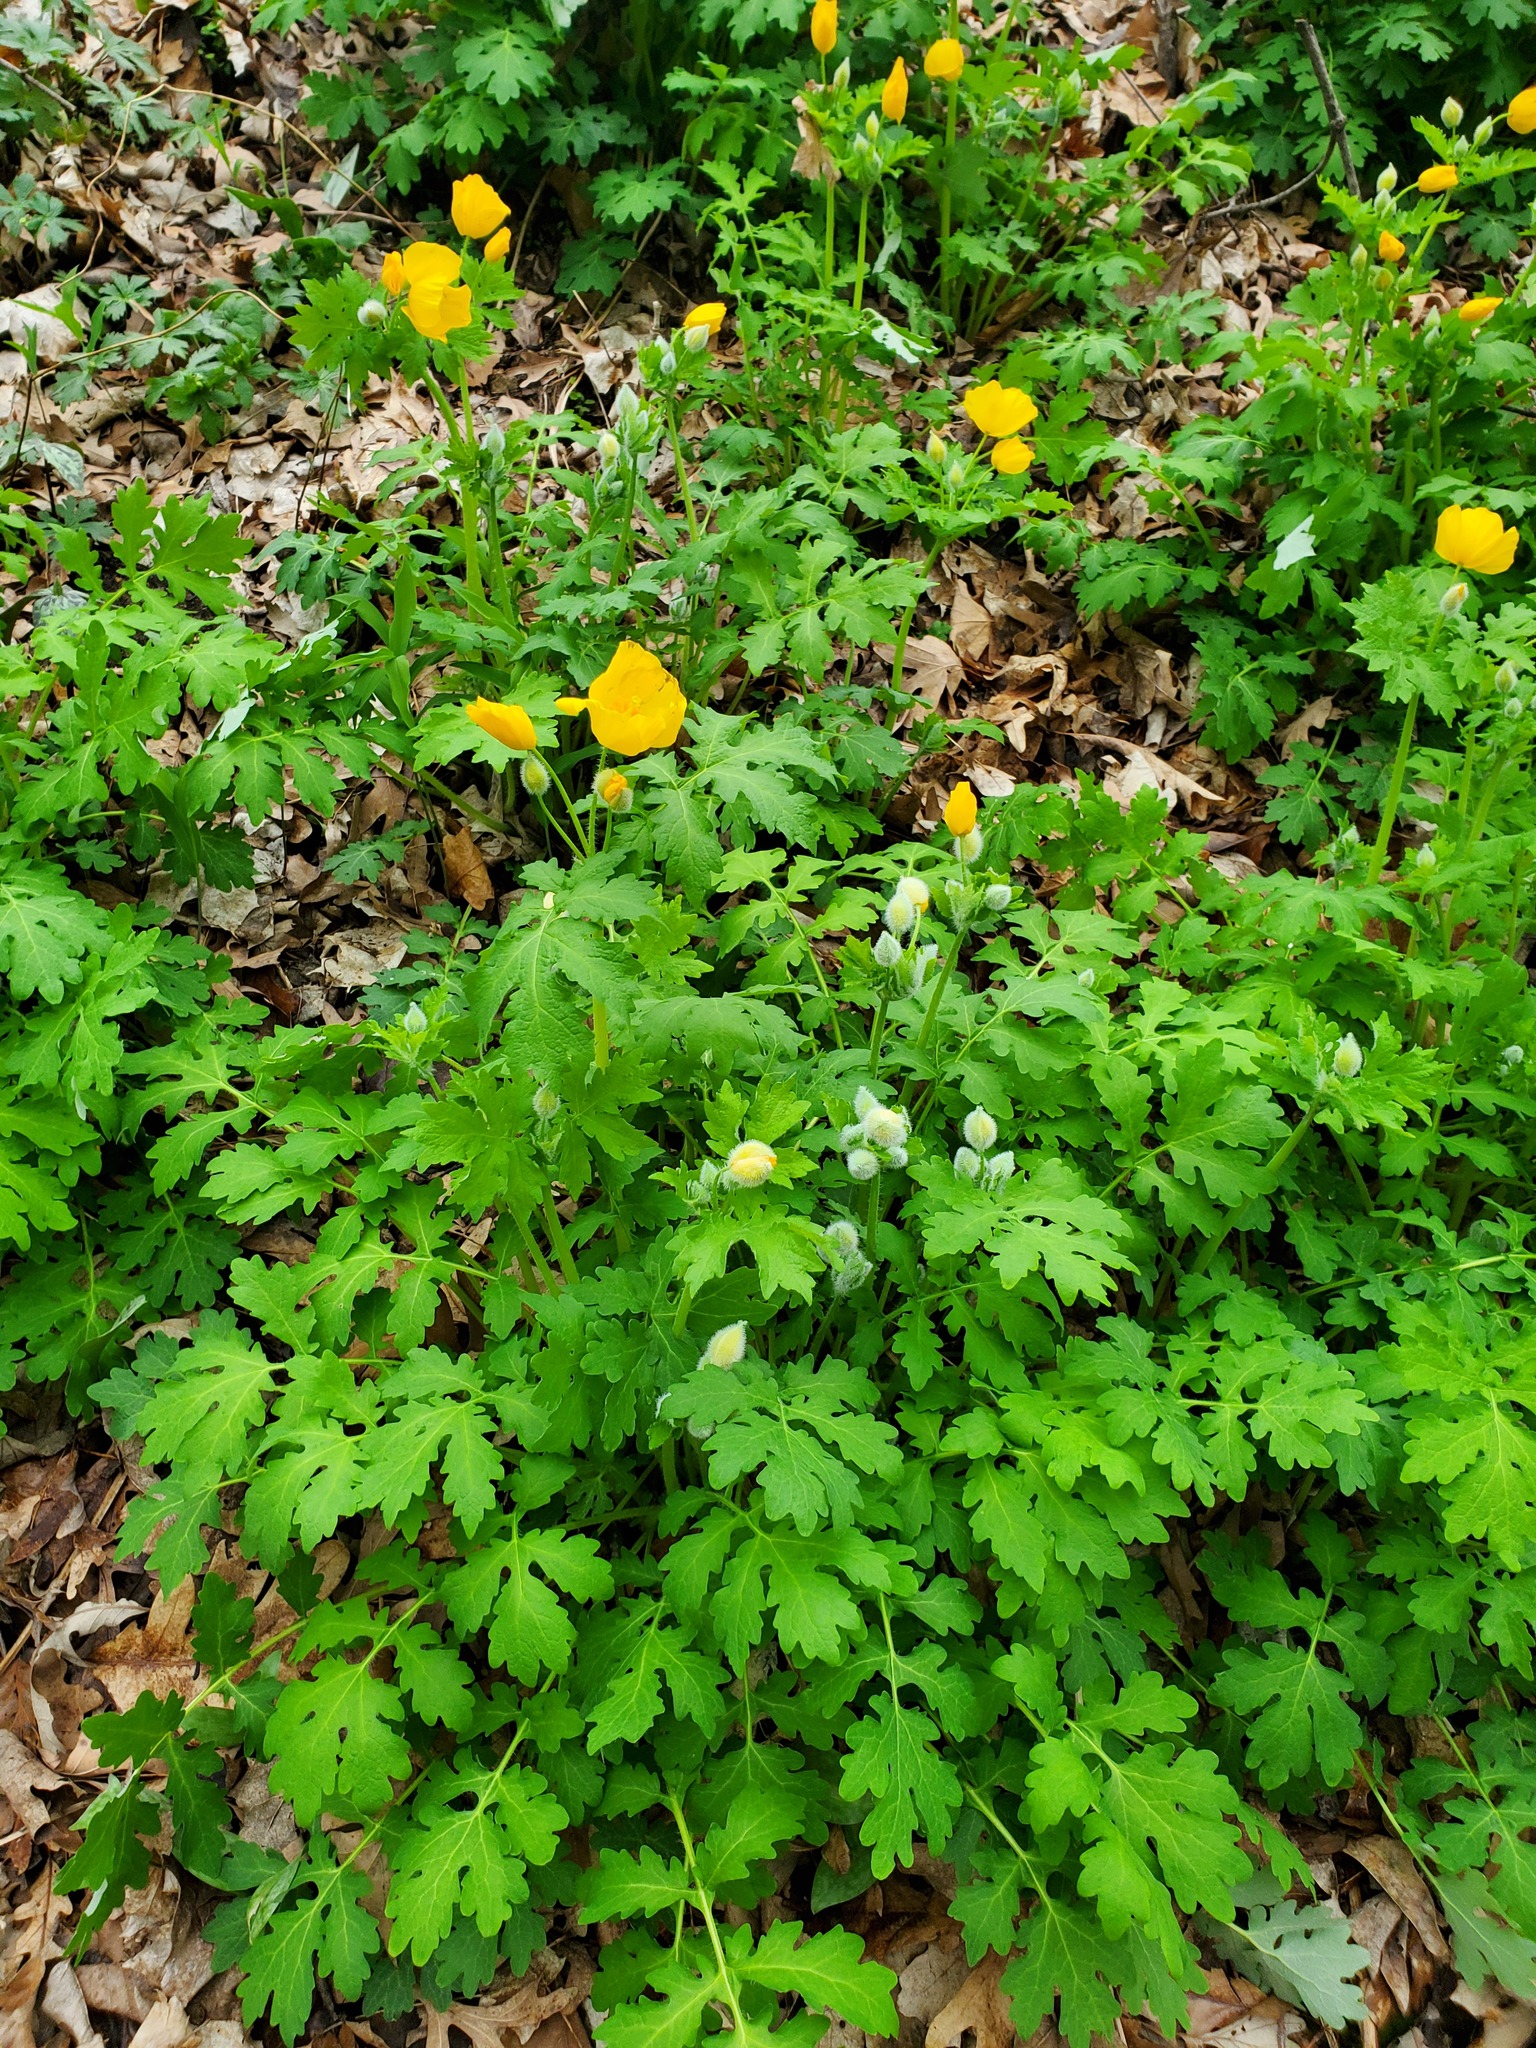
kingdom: Plantae
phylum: Tracheophyta
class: Magnoliopsida
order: Ranunculales
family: Papaveraceae
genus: Stylophorum
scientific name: Stylophorum diphyllum
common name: Celandine poppy
